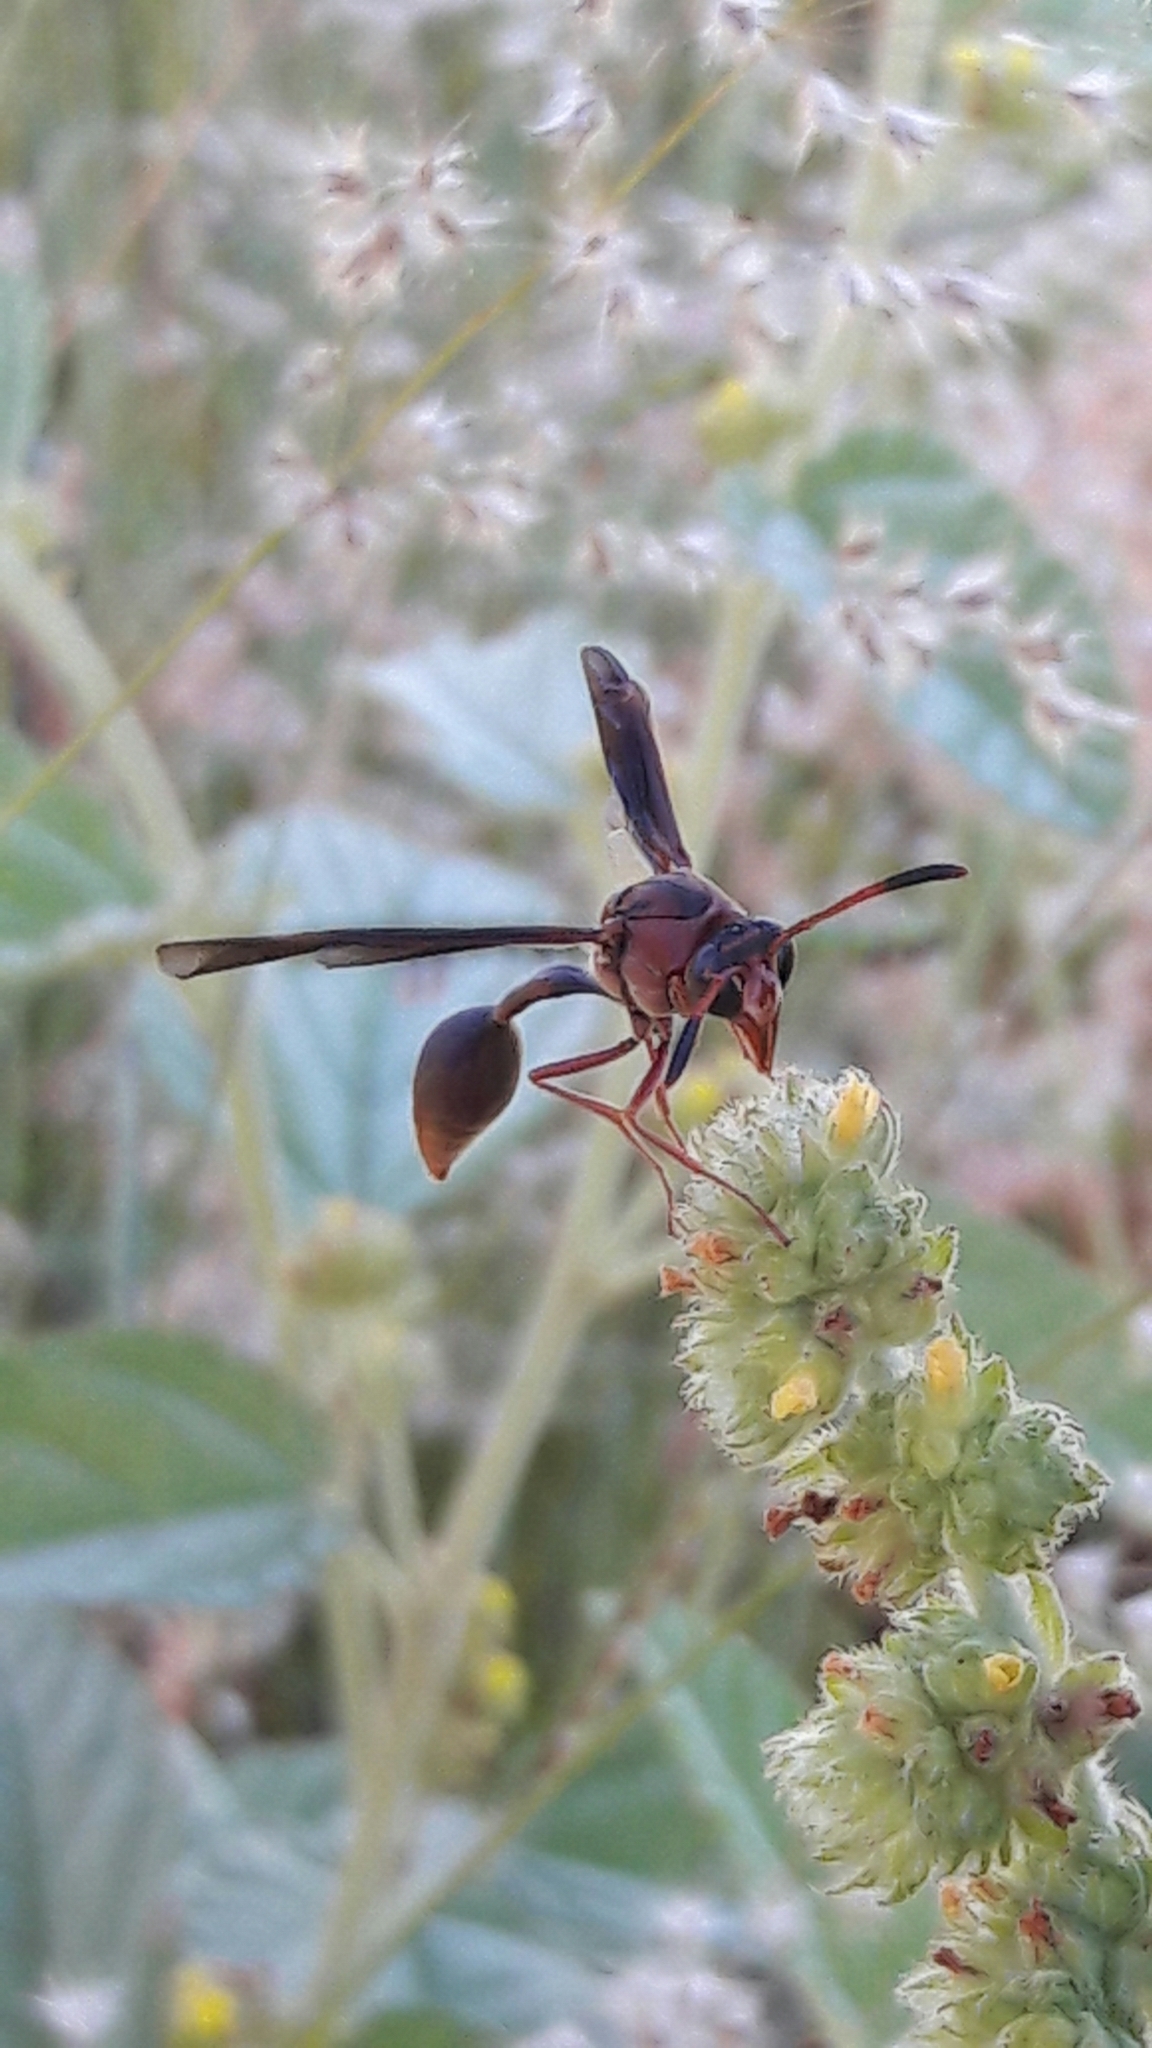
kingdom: Animalia
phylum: Arthropoda
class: Insecta
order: Hymenoptera
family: Eumenidae
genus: Zeta
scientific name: Zeta argillaceum
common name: Potter wasp
